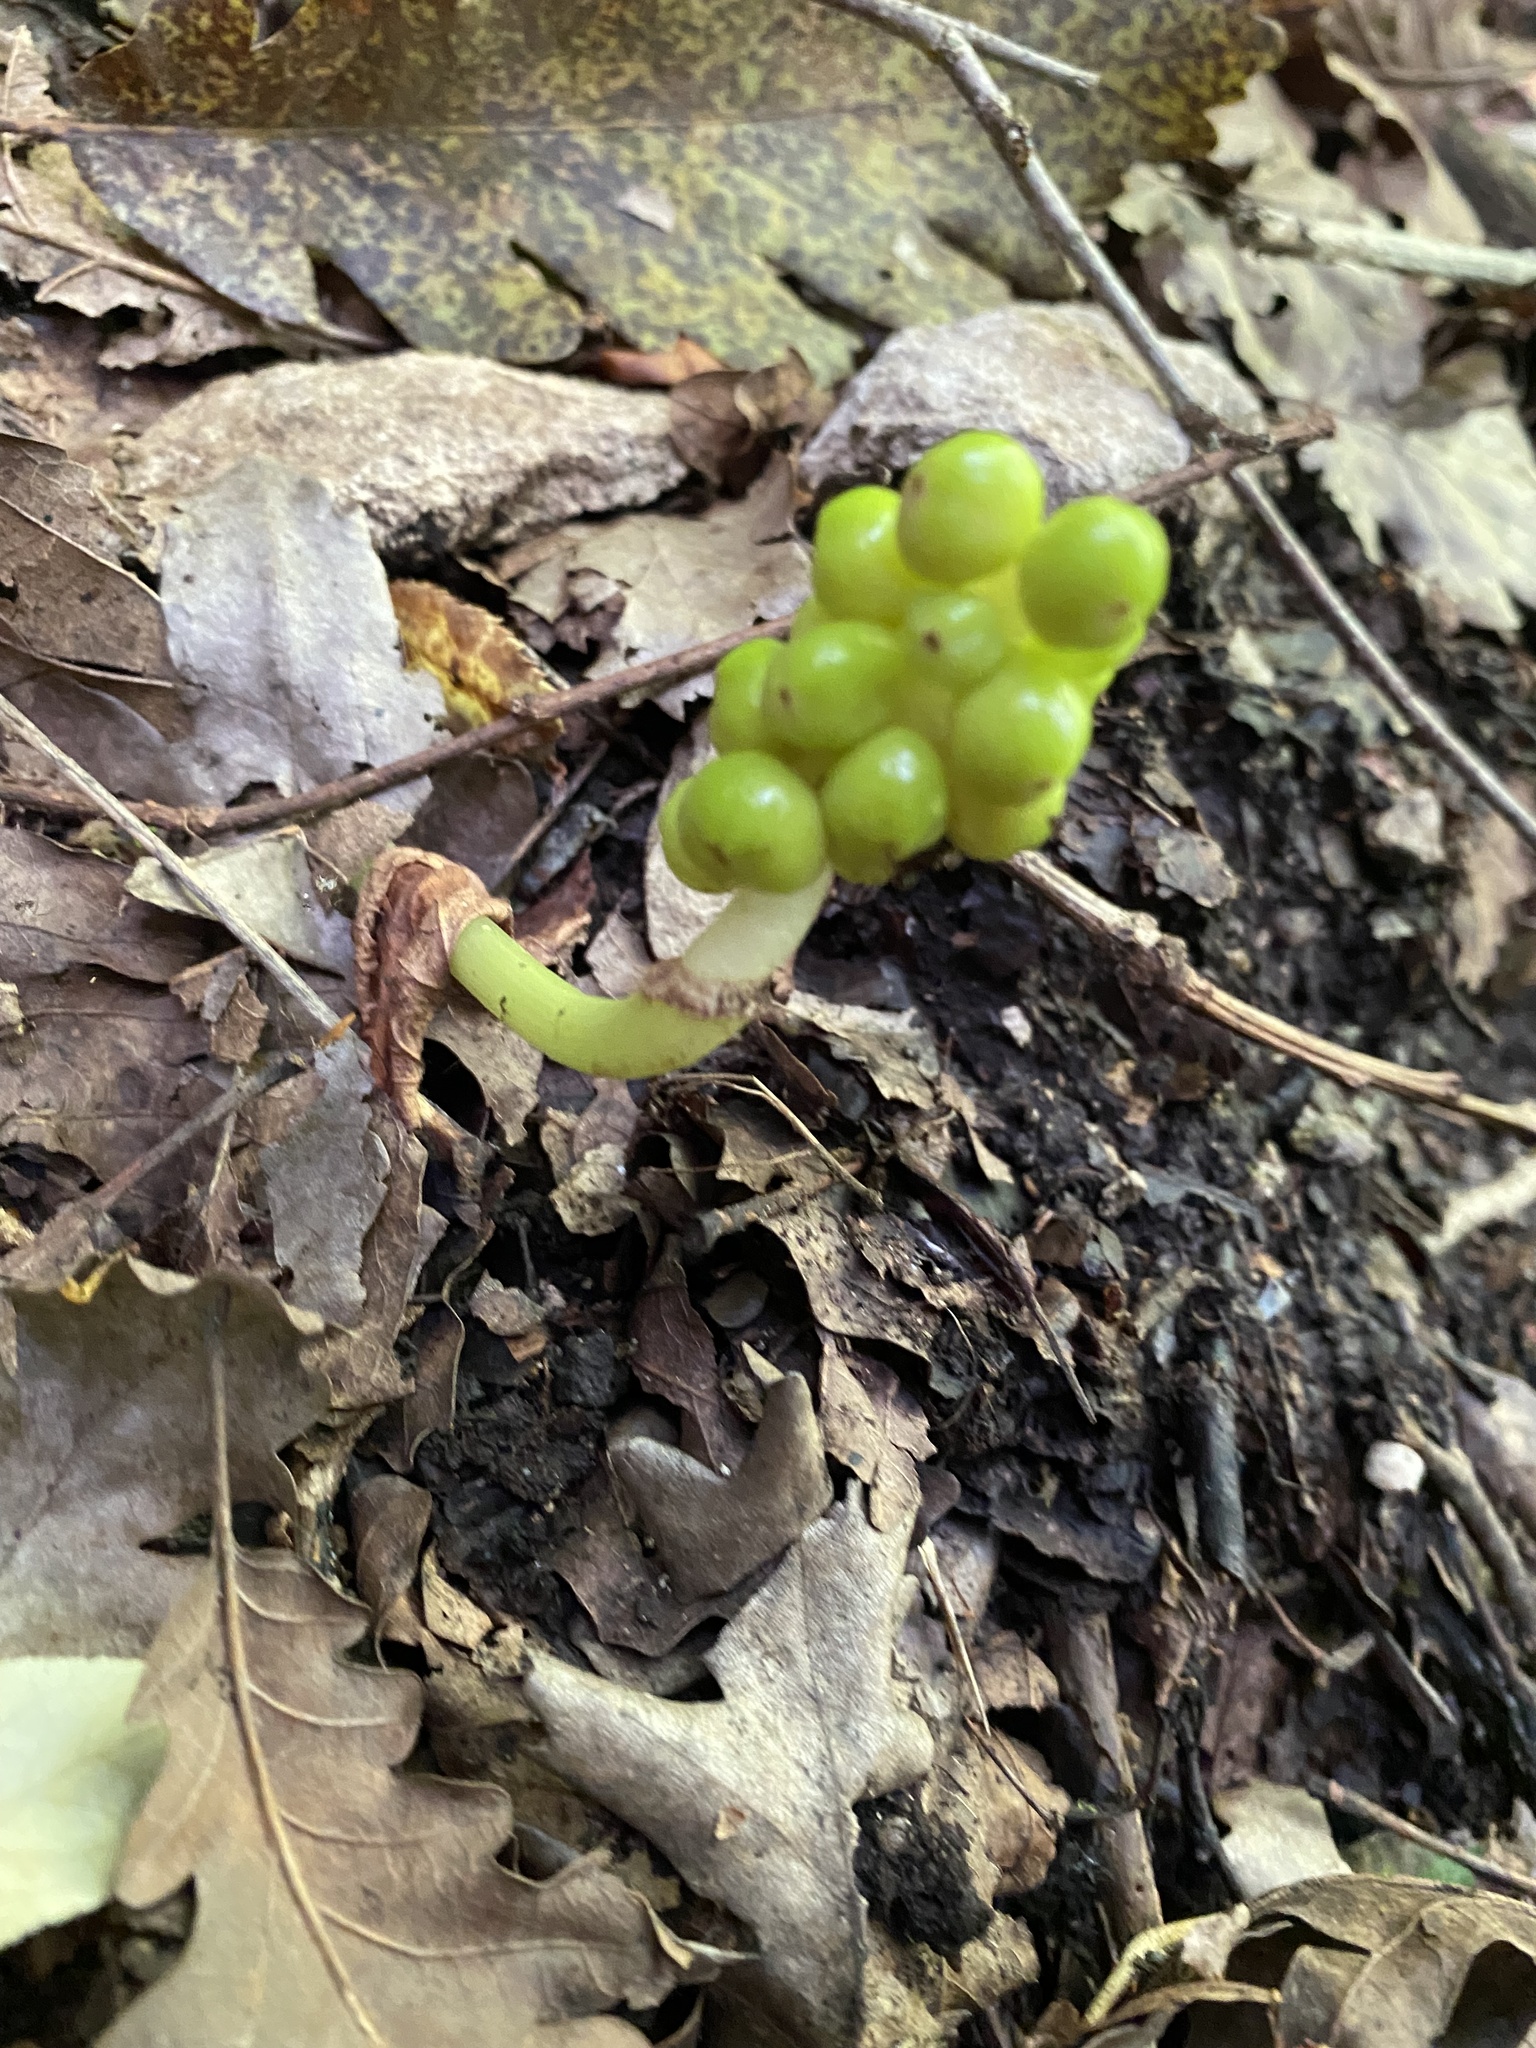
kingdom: Plantae
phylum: Tracheophyta
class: Liliopsida
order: Alismatales
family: Araceae
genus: Arum
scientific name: Arum orientale
